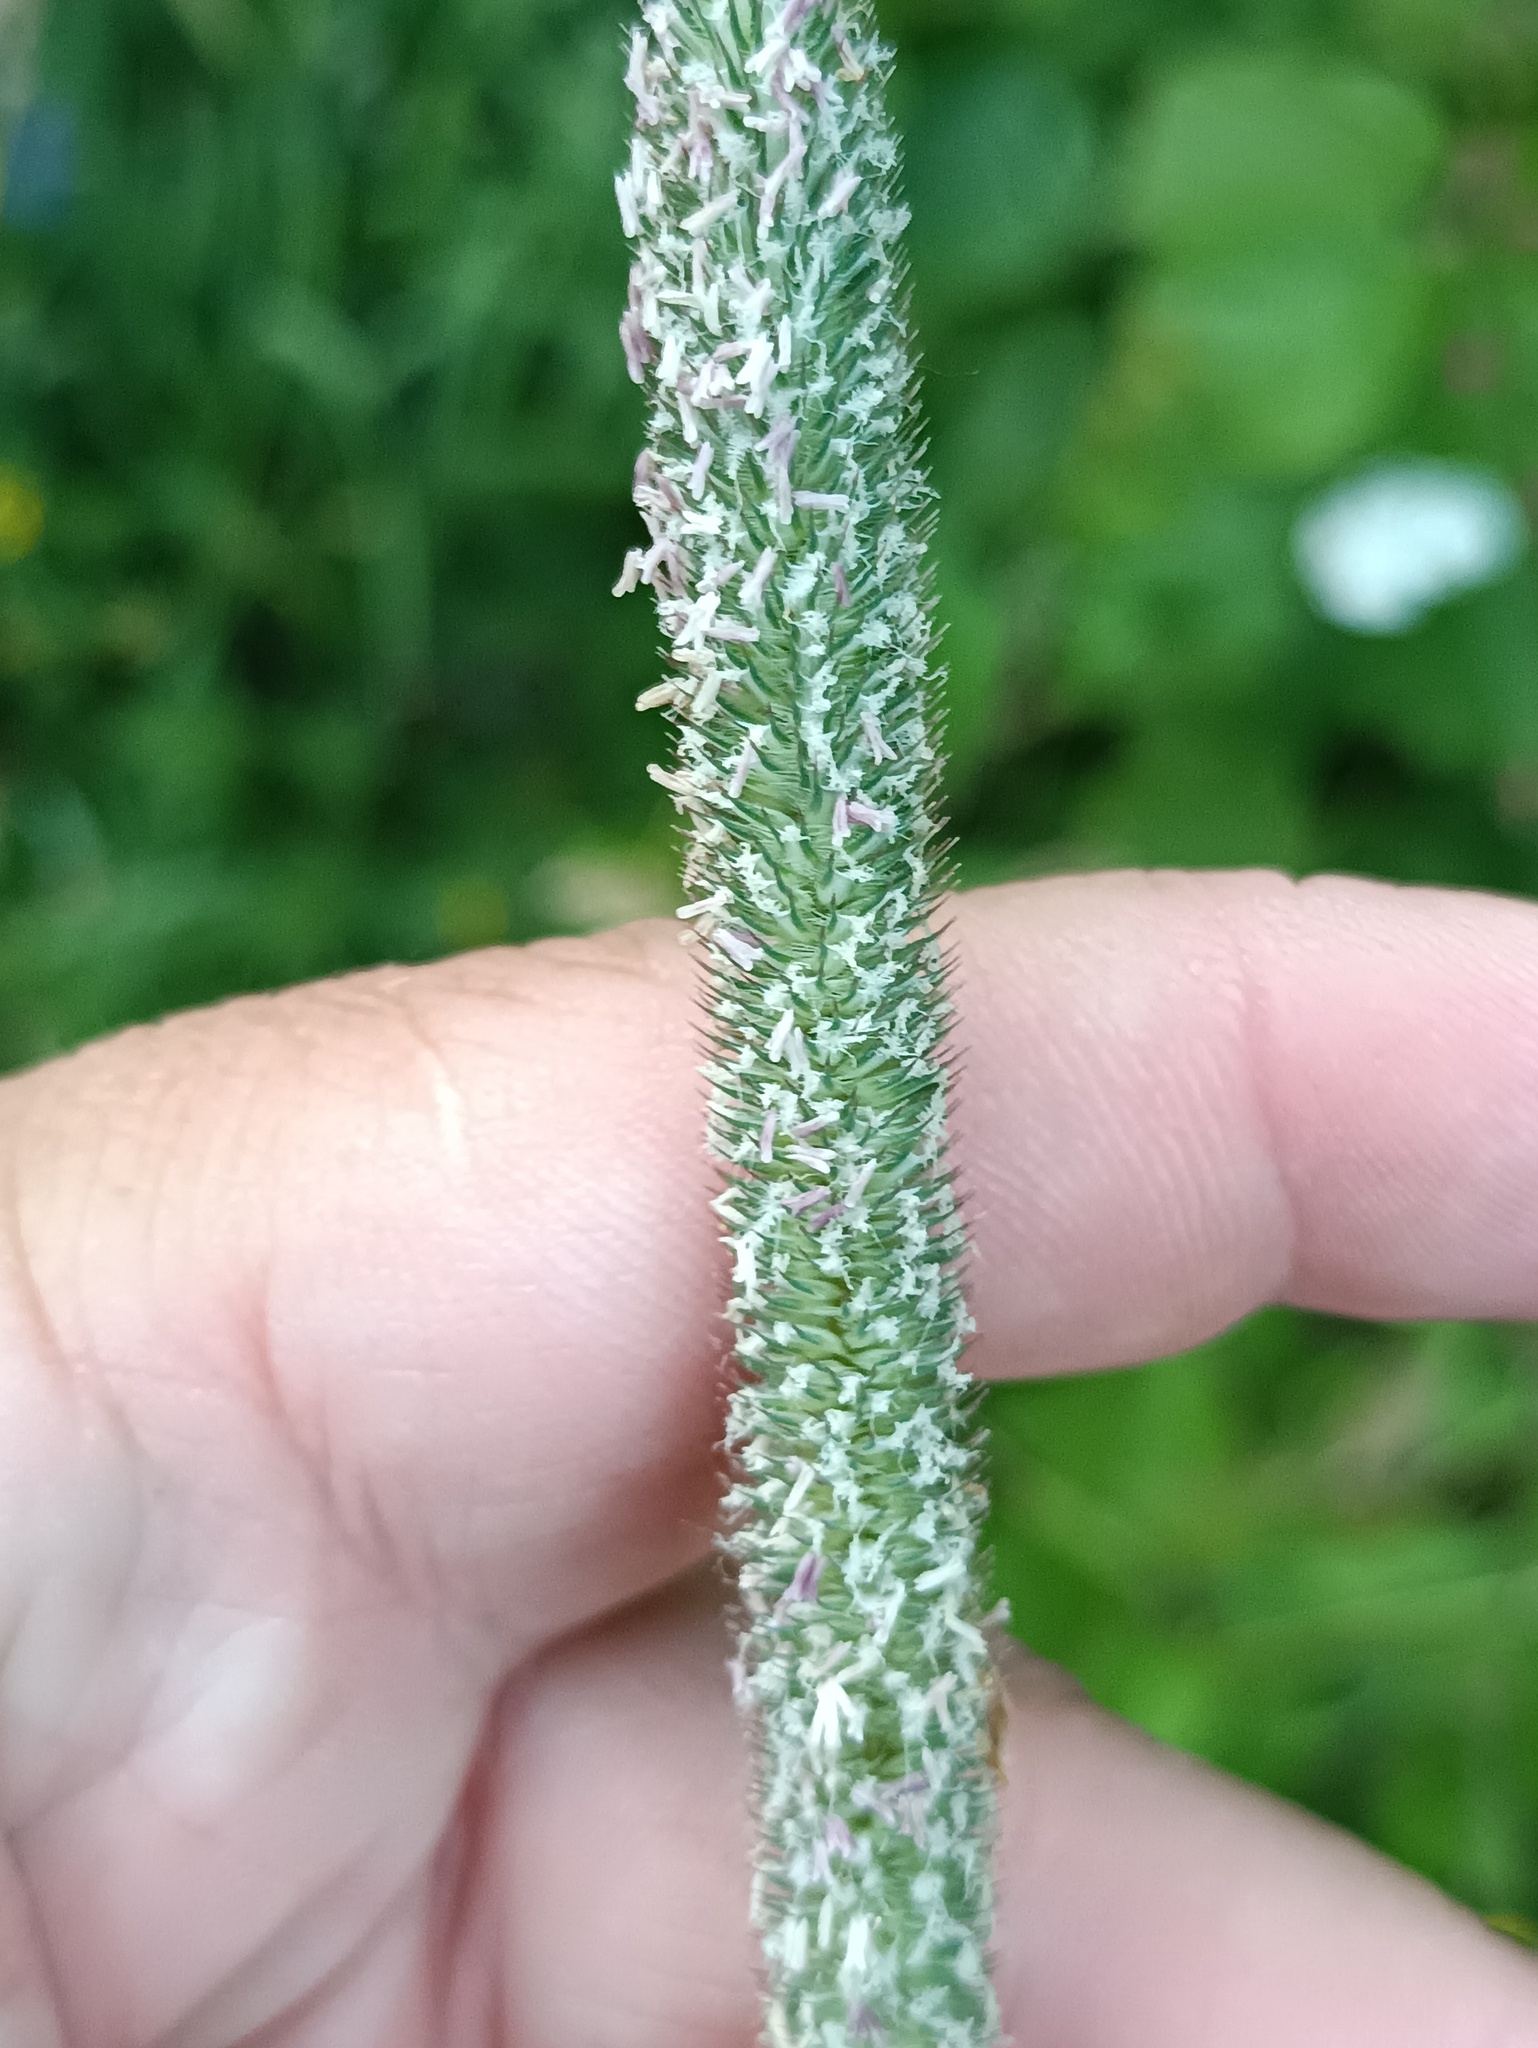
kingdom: Plantae
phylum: Tracheophyta
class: Liliopsida
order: Poales
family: Poaceae
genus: Phleum
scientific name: Phleum pratense
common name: Timothy grass
